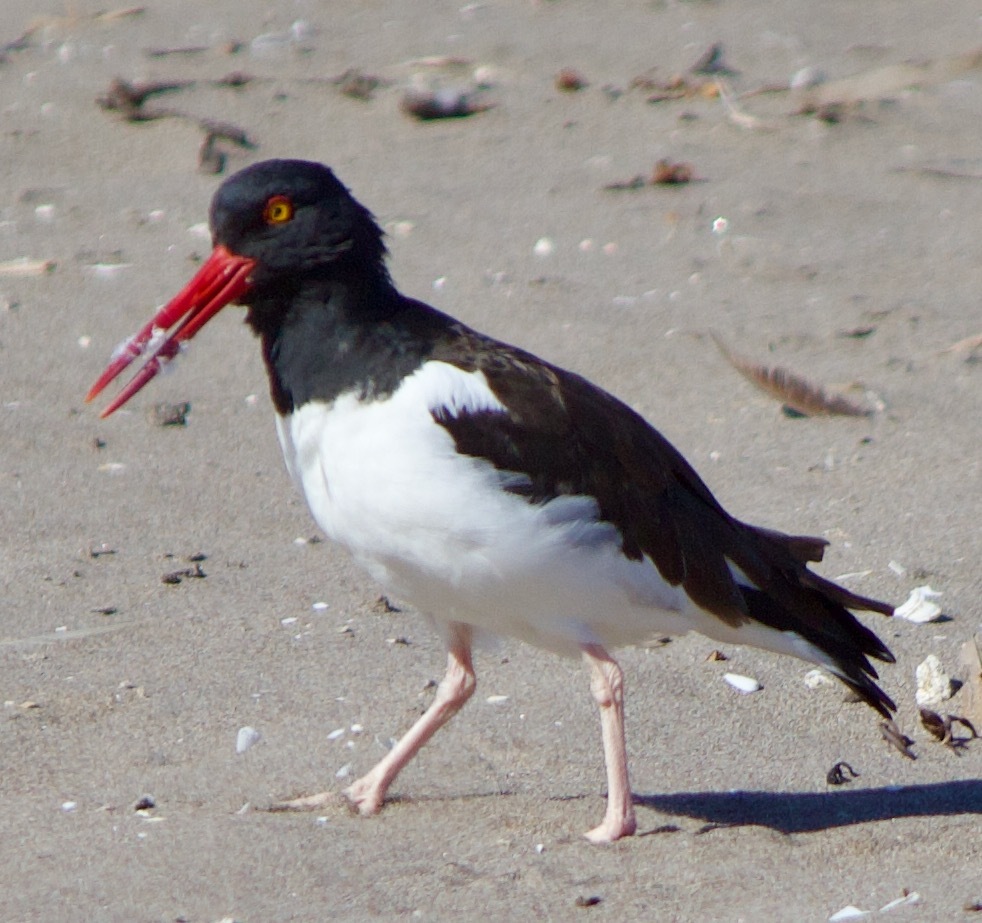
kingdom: Animalia
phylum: Chordata
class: Aves
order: Charadriiformes
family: Haematopodidae
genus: Haematopus
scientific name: Haematopus palliatus
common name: American oystercatcher
